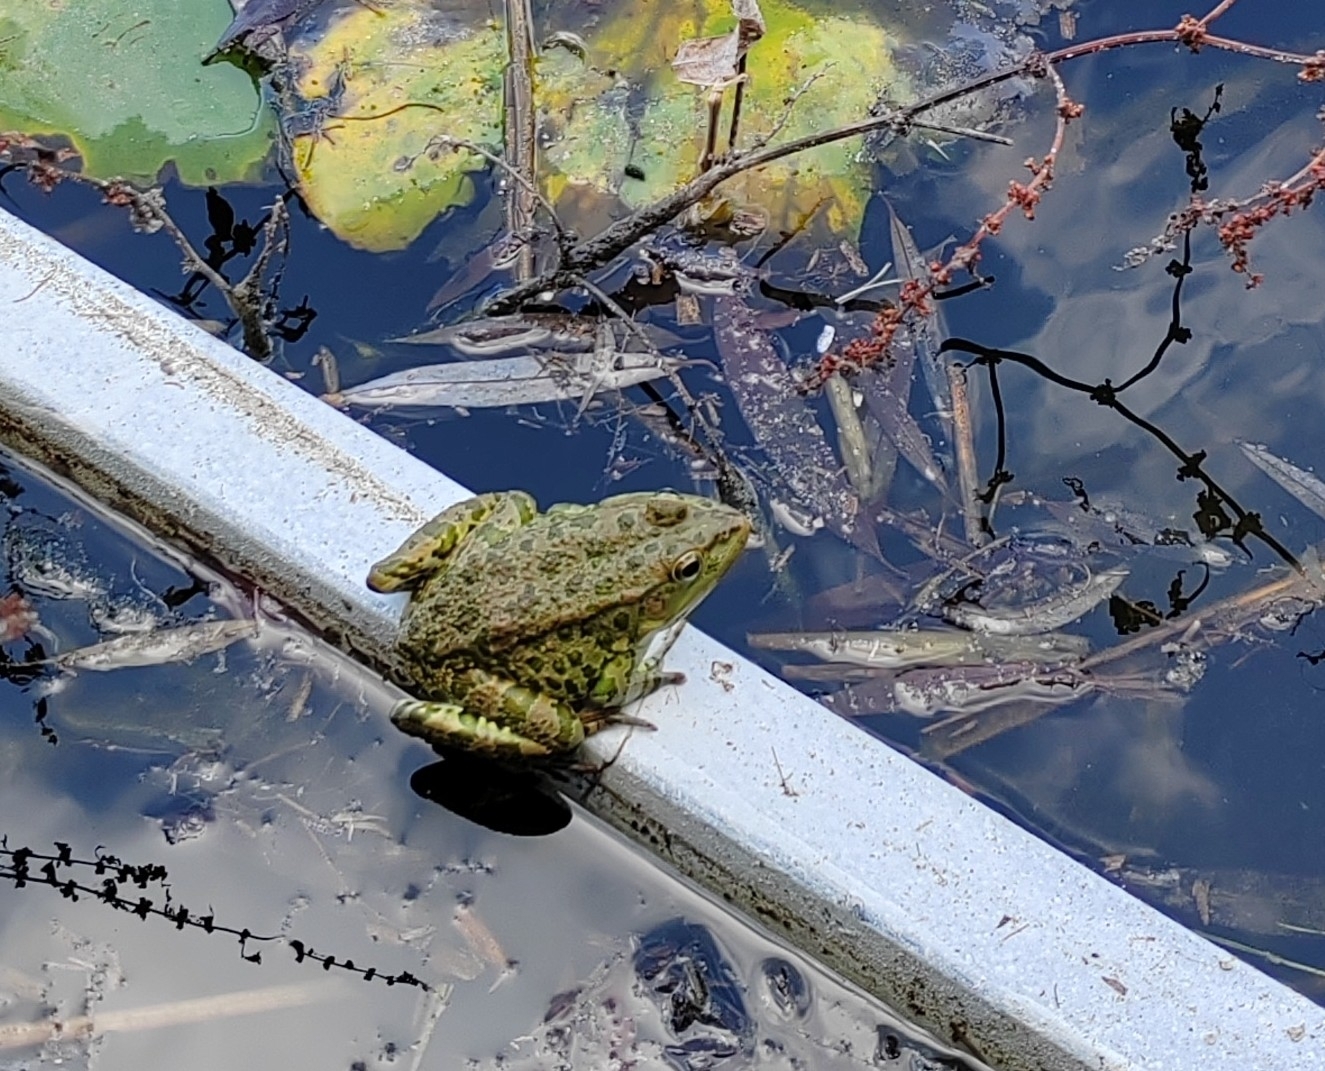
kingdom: Animalia
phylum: Chordata
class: Amphibia
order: Anura
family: Ranidae
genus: Pelophylax
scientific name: Pelophylax ridibundus
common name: Marsh frog
